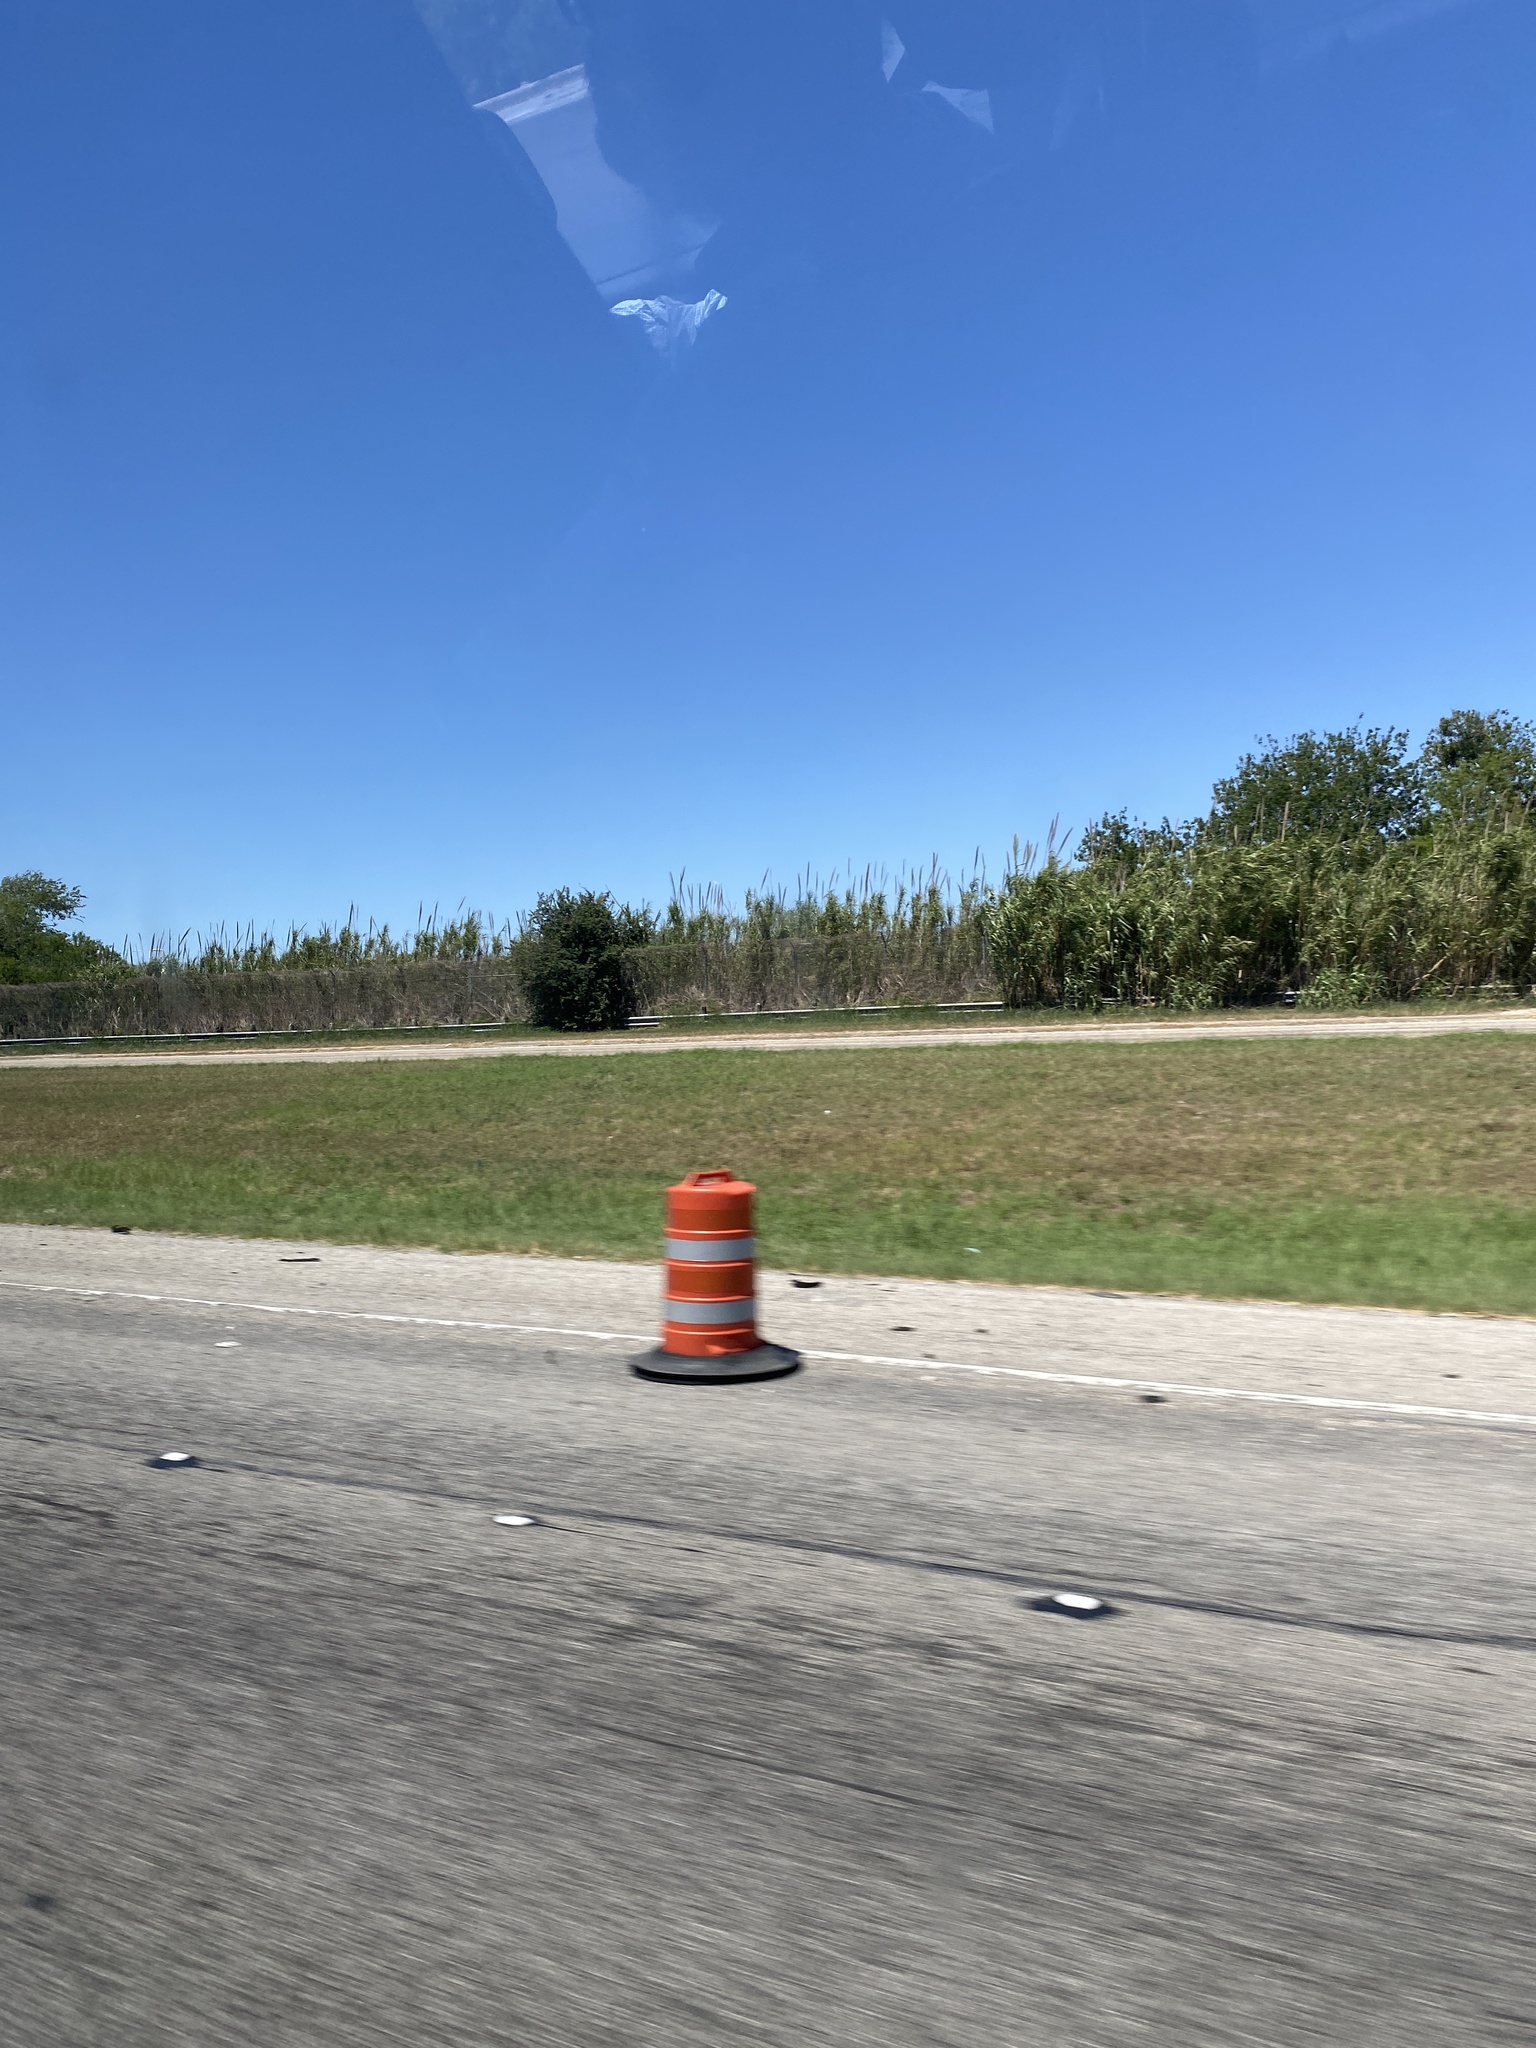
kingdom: Plantae
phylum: Tracheophyta
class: Liliopsida
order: Poales
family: Poaceae
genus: Arundo
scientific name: Arundo donax
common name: Giant reed
